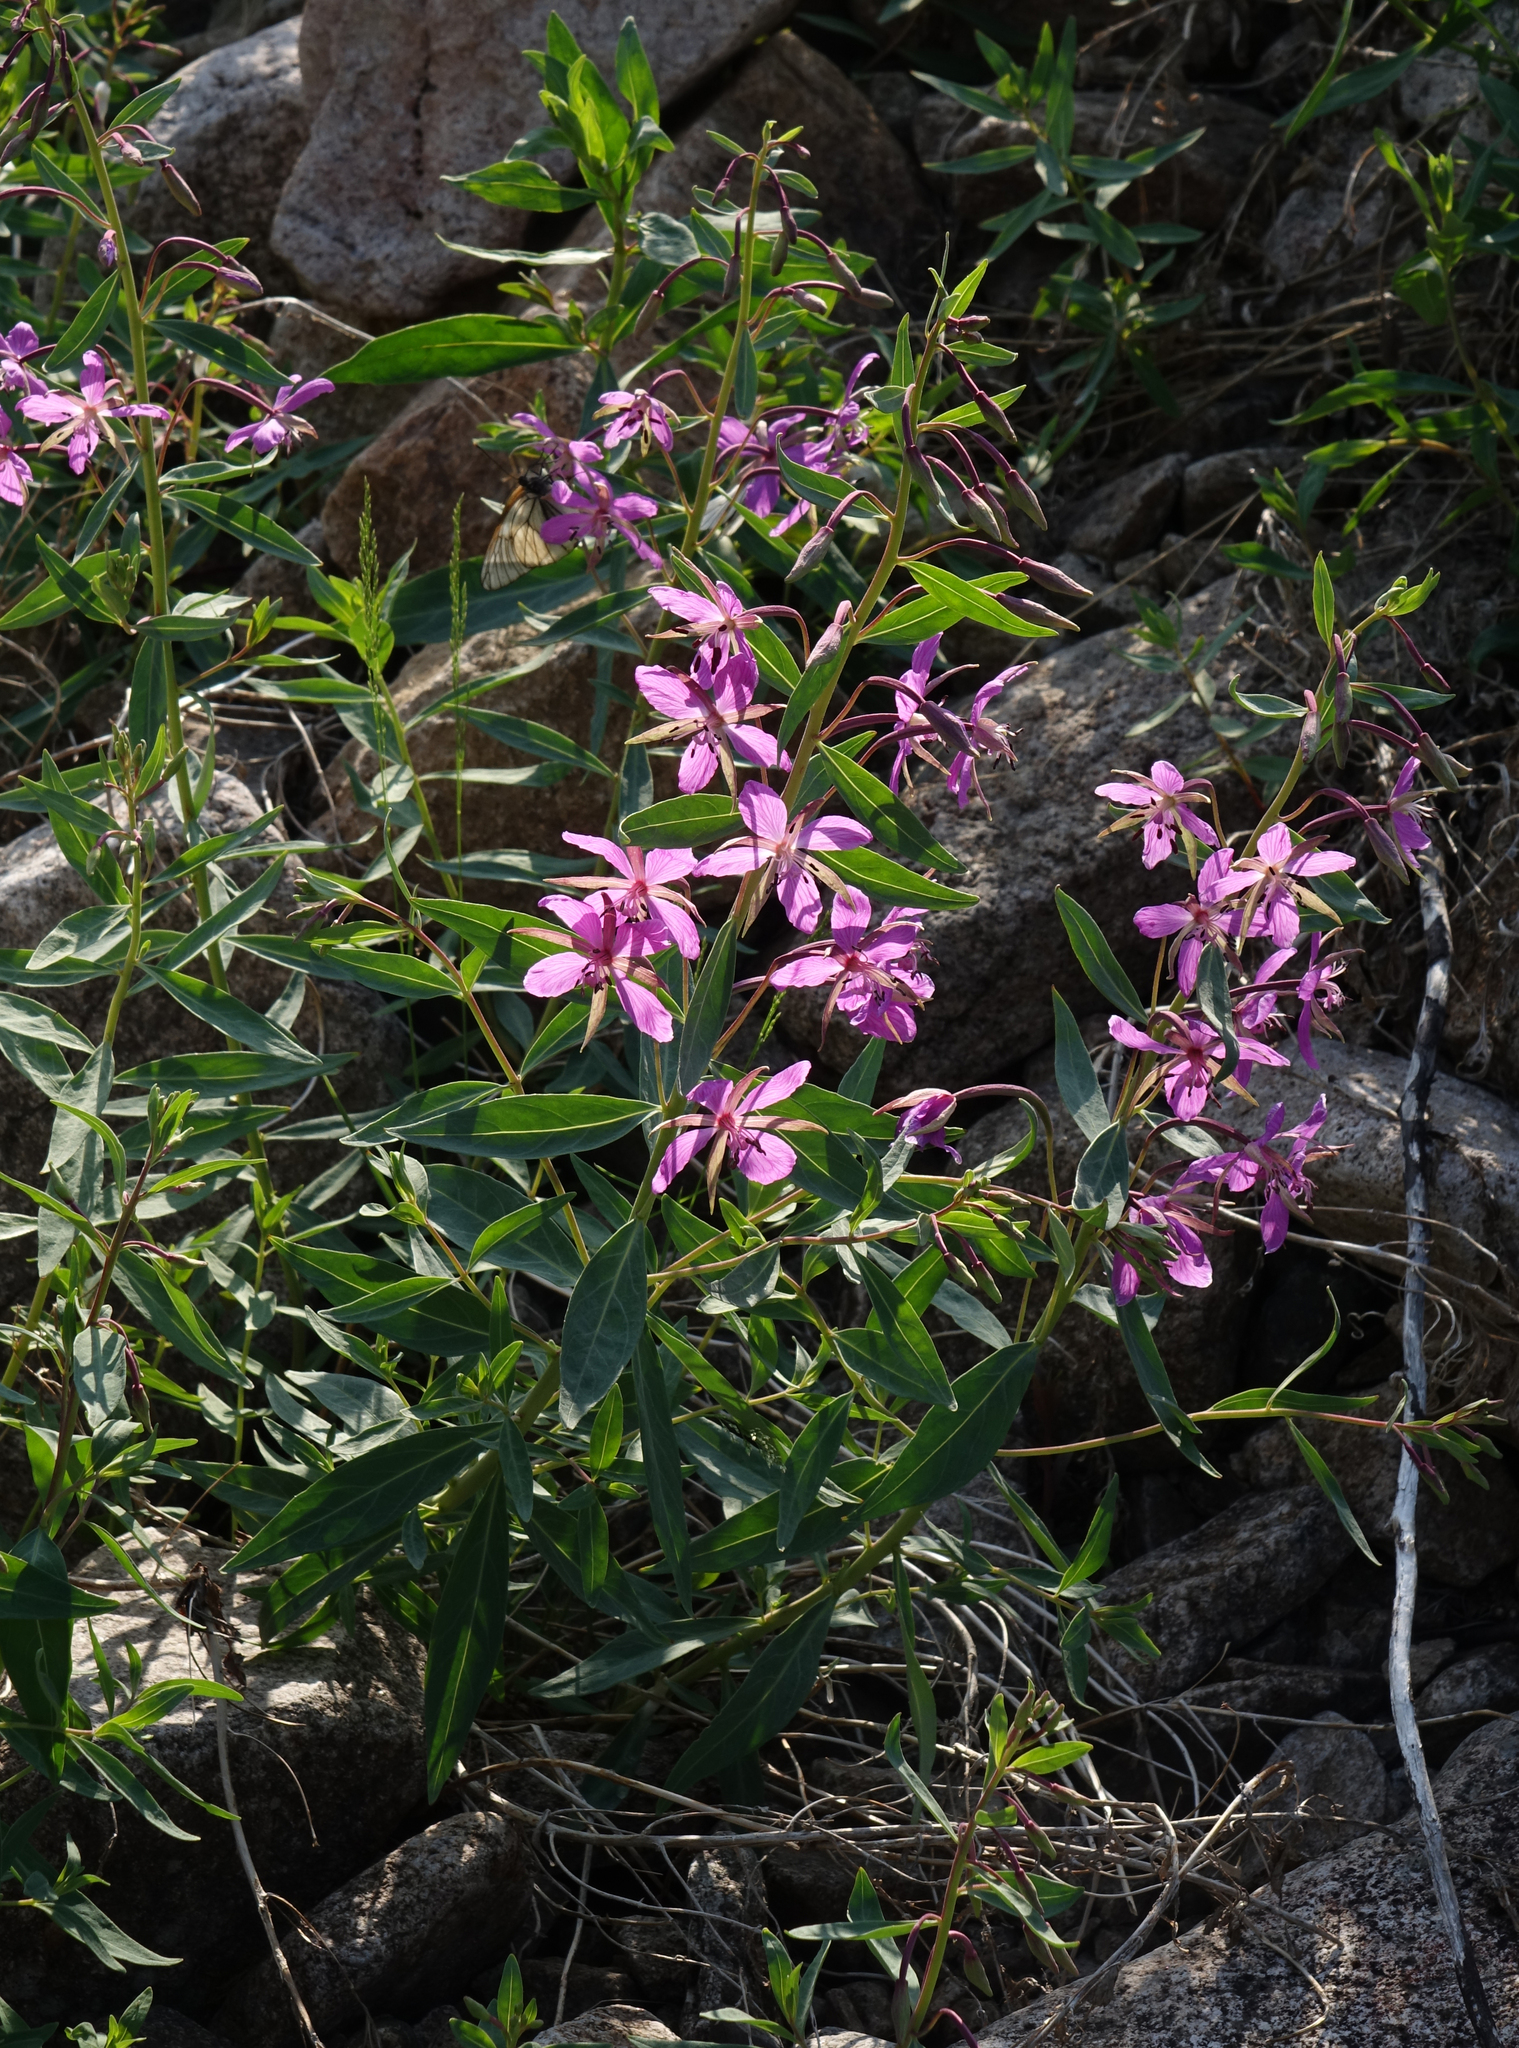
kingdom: Plantae
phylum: Tracheophyta
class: Magnoliopsida
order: Myrtales
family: Onagraceae
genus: Chamaenerion
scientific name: Chamaenerion latifolium
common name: Dwarf fireweed
